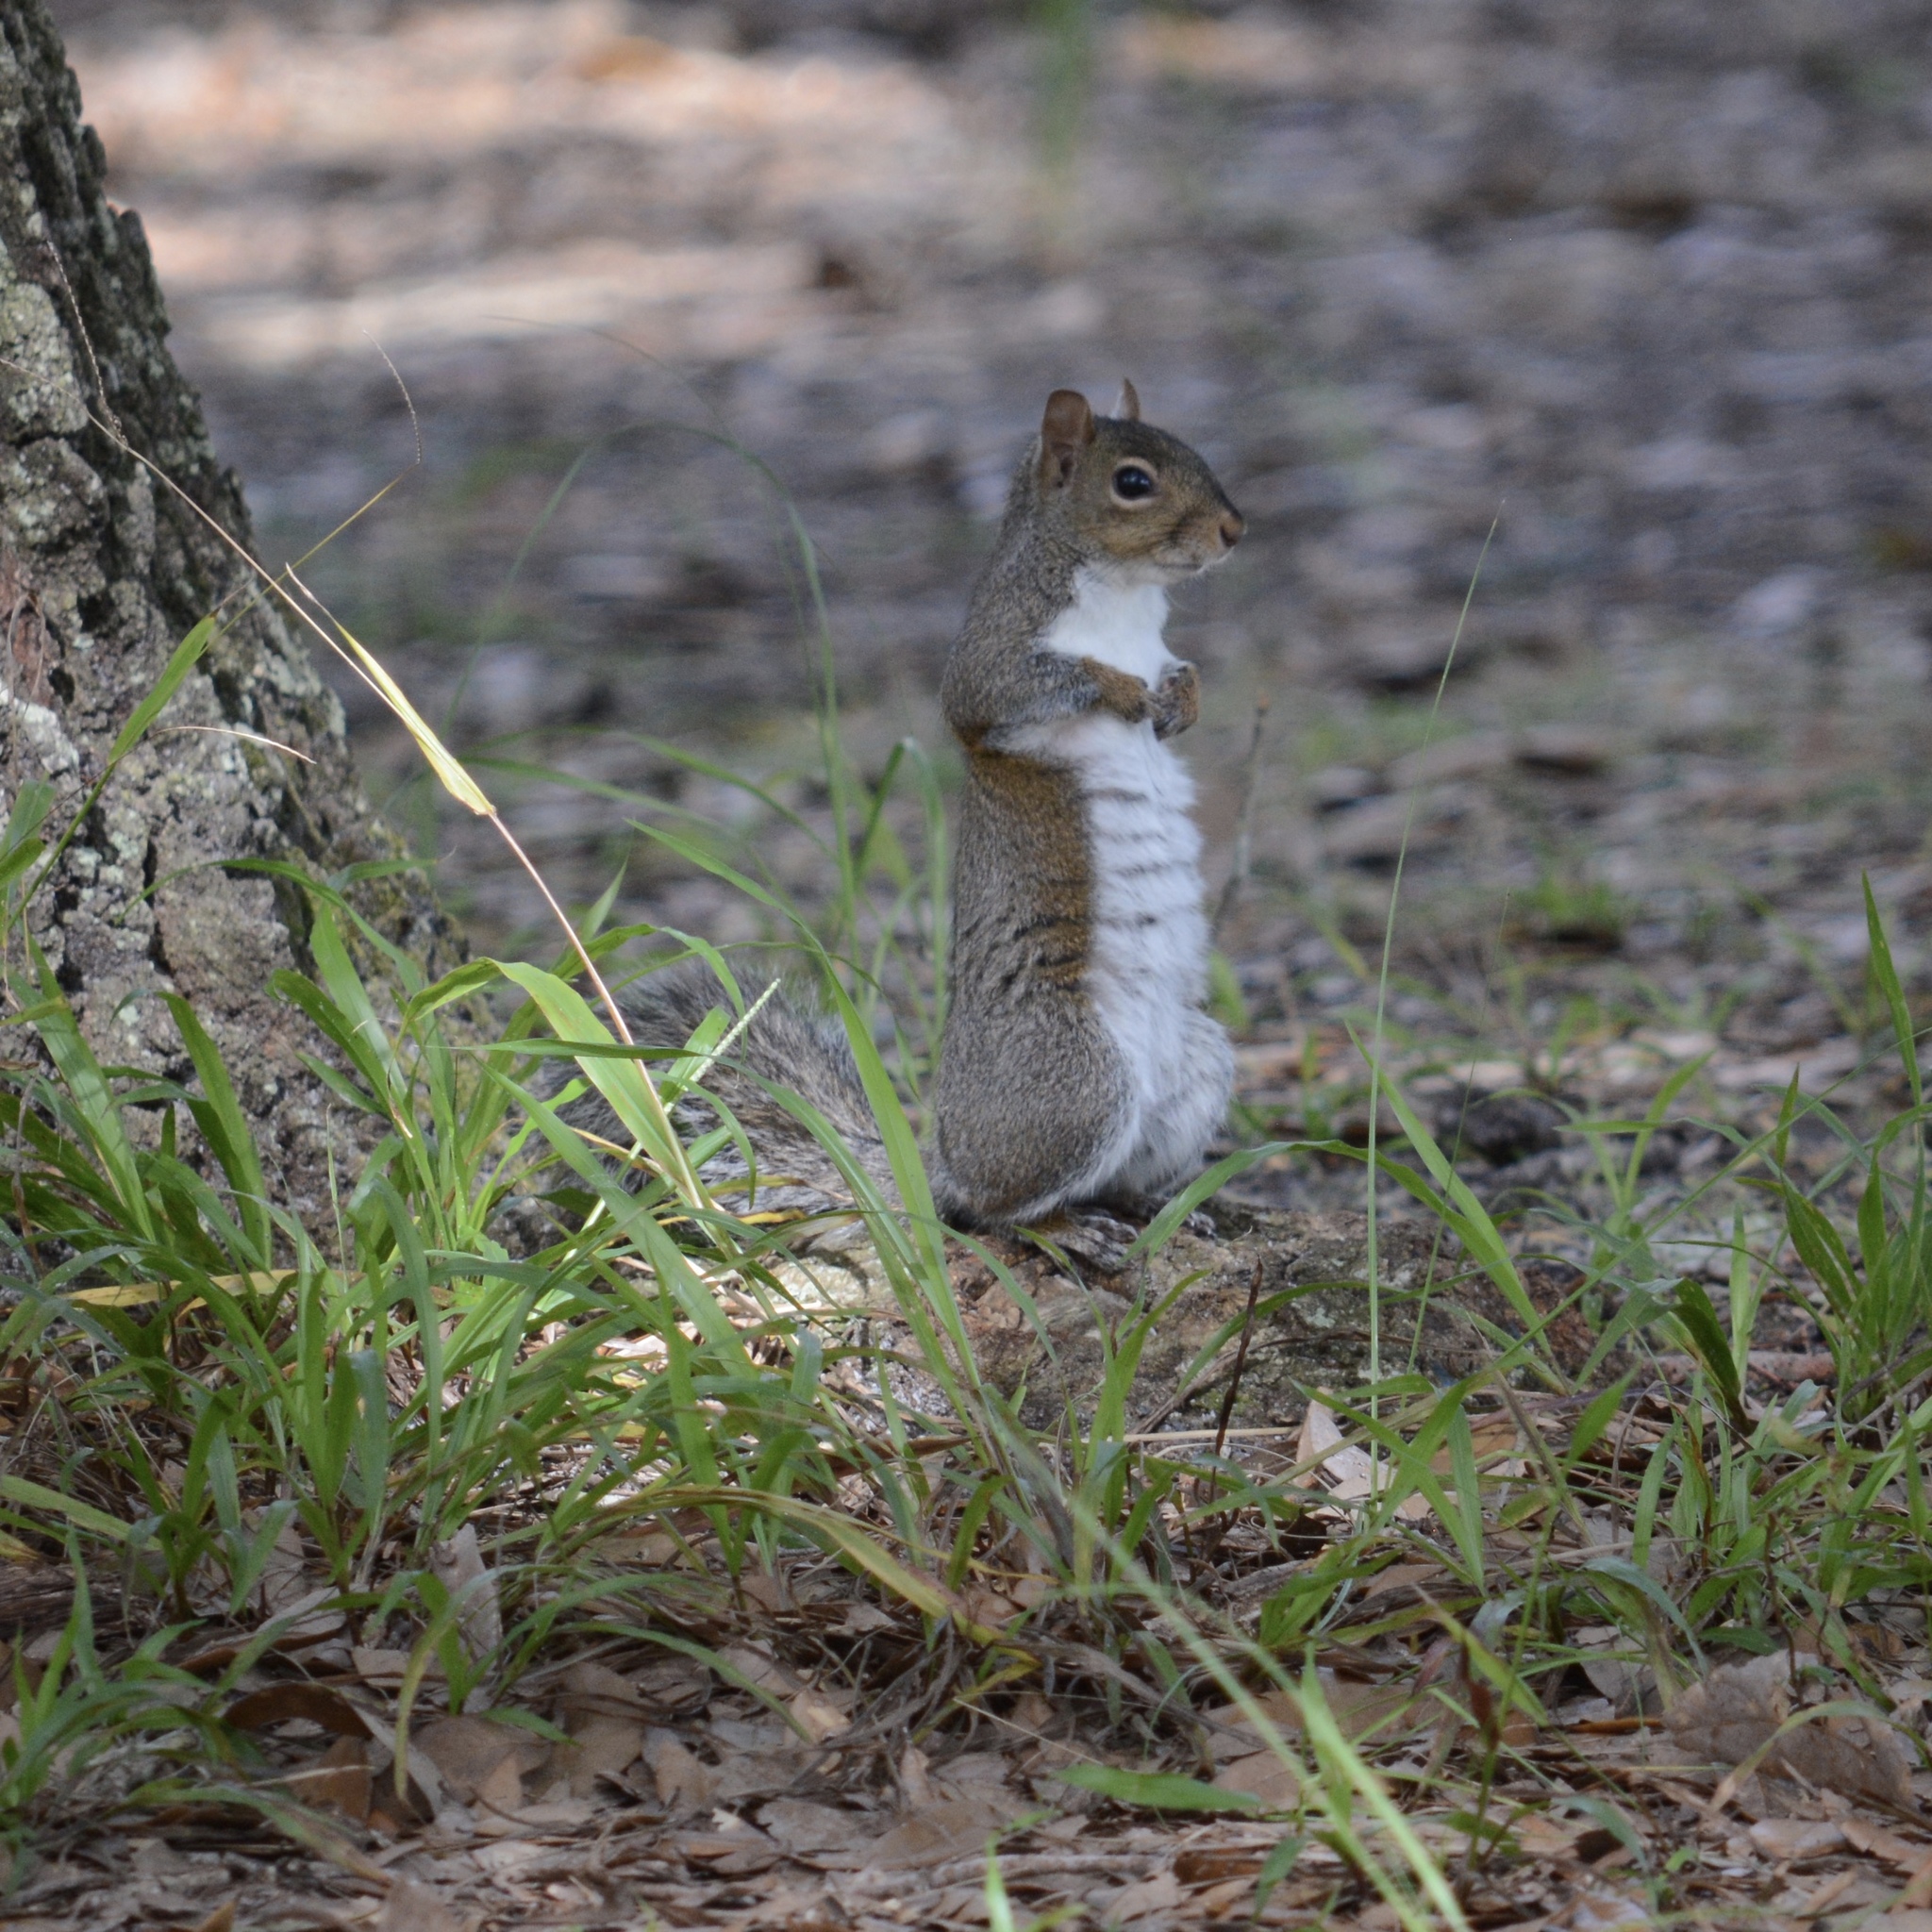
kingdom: Animalia
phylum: Chordata
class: Mammalia
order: Rodentia
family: Sciuridae
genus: Sciurus
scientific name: Sciurus carolinensis
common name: Eastern gray squirrel
